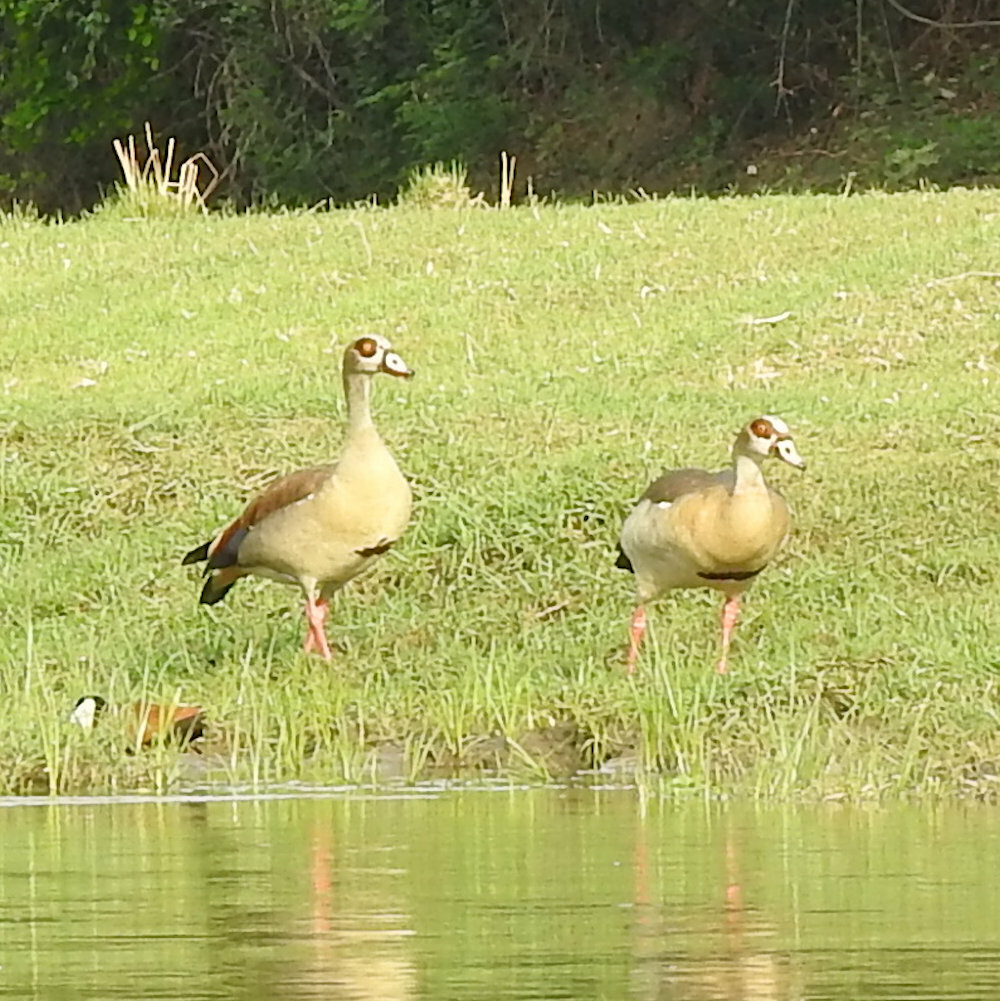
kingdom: Animalia
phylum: Chordata
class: Aves
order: Anseriformes
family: Anatidae
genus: Alopochen
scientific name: Alopochen aegyptiaca
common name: Egyptian goose
